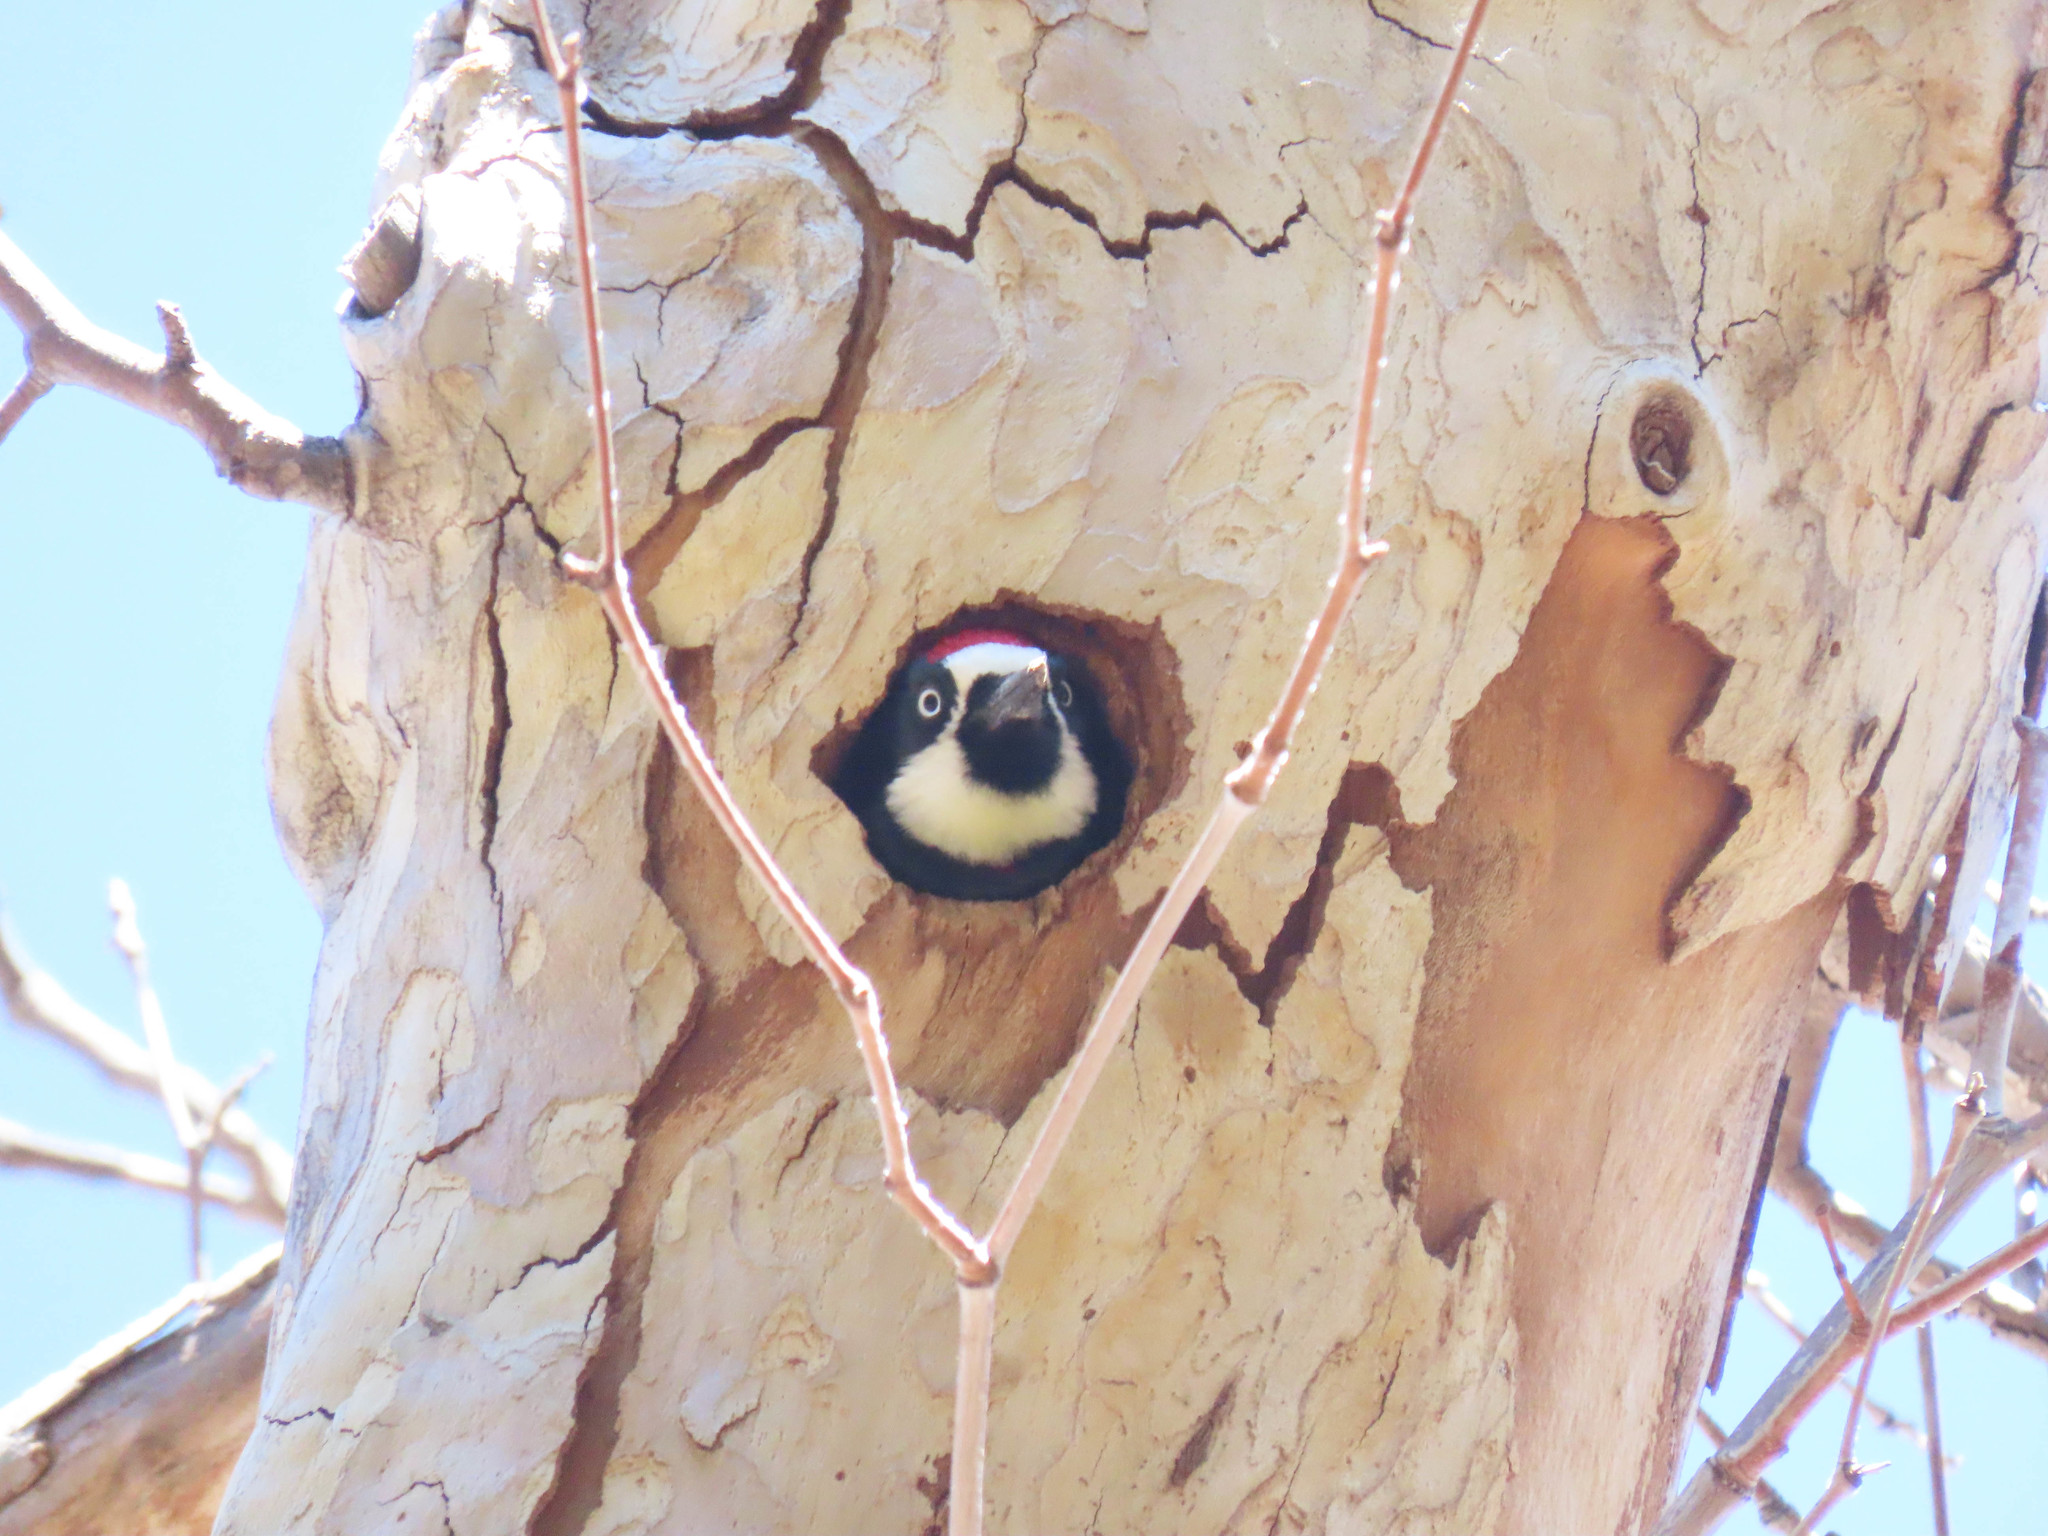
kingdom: Animalia
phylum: Chordata
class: Aves
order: Piciformes
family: Picidae
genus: Melanerpes
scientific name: Melanerpes formicivorus
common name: Acorn woodpecker
